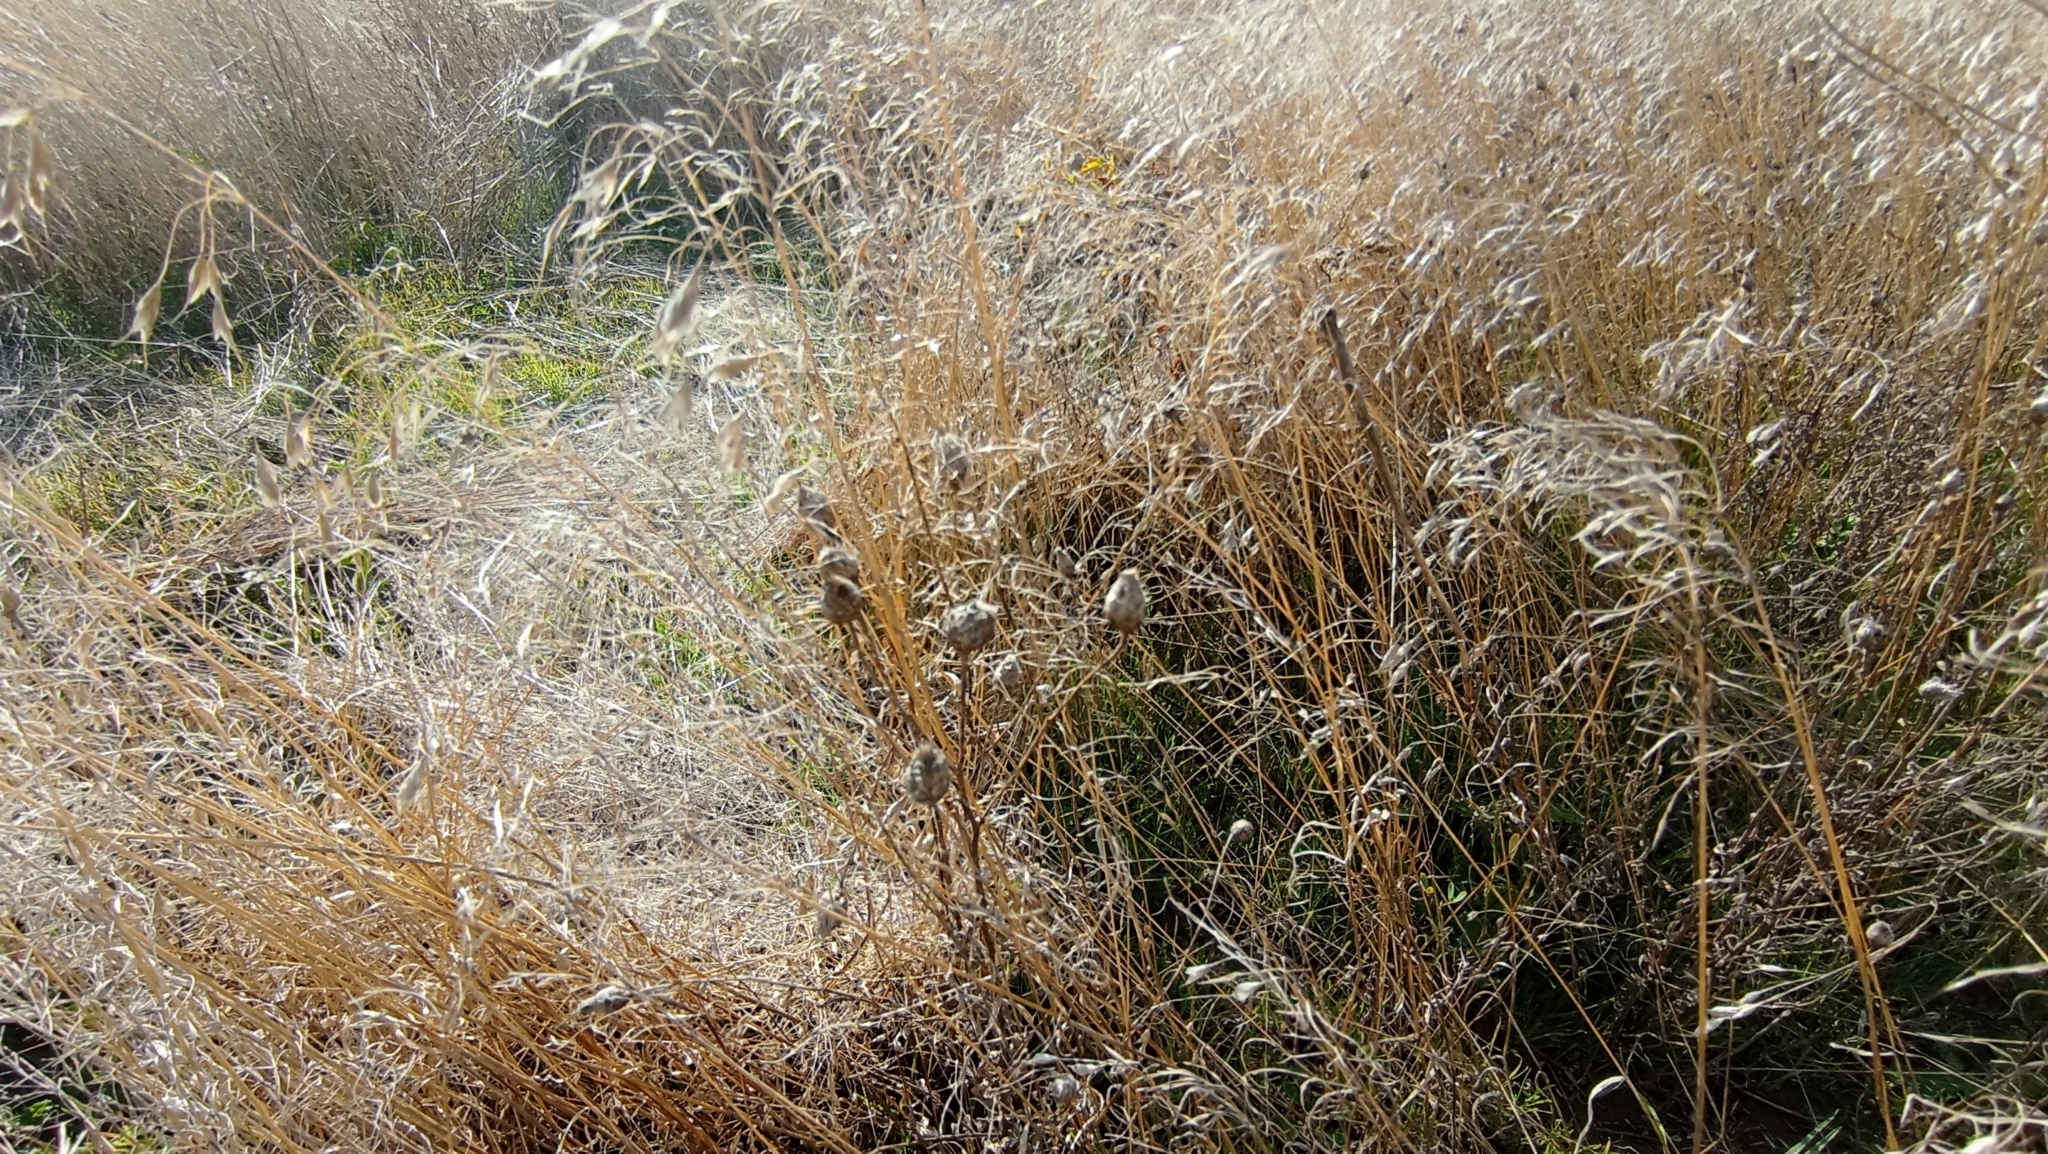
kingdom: Plantae
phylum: Tracheophyta
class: Liliopsida
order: Poales
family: Poaceae
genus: Bromus
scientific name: Bromus squarrosus
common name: Corn brome
